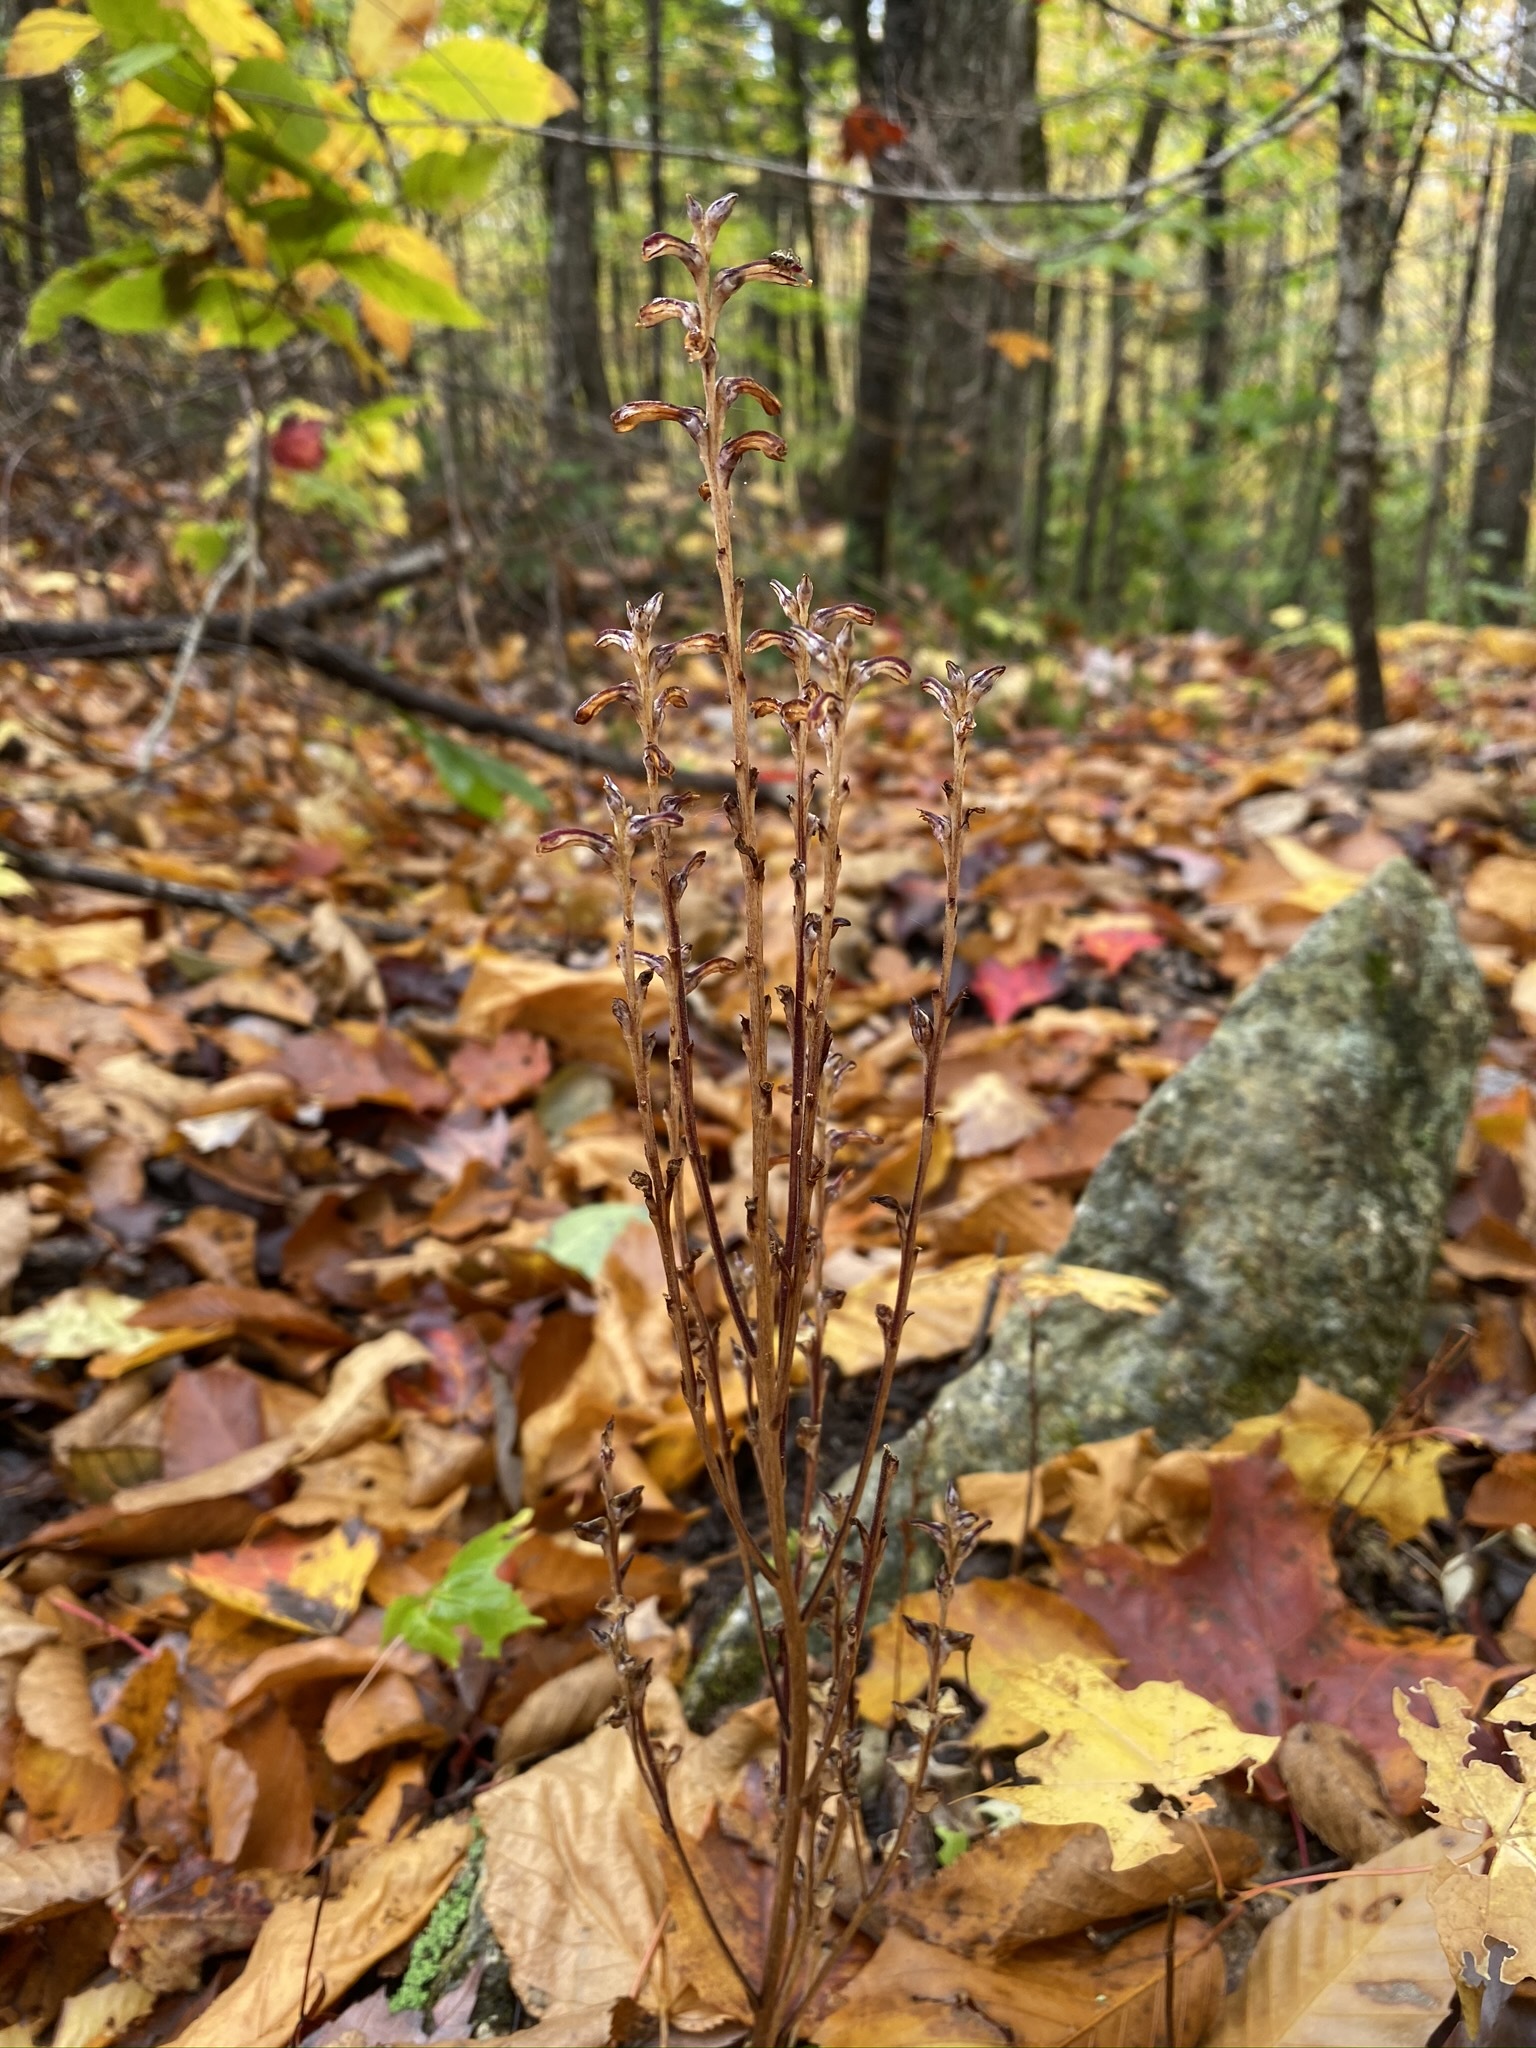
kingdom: Plantae
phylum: Tracheophyta
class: Magnoliopsida
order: Lamiales
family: Orobanchaceae
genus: Epifagus
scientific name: Epifagus virginiana
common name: Beechdrops
